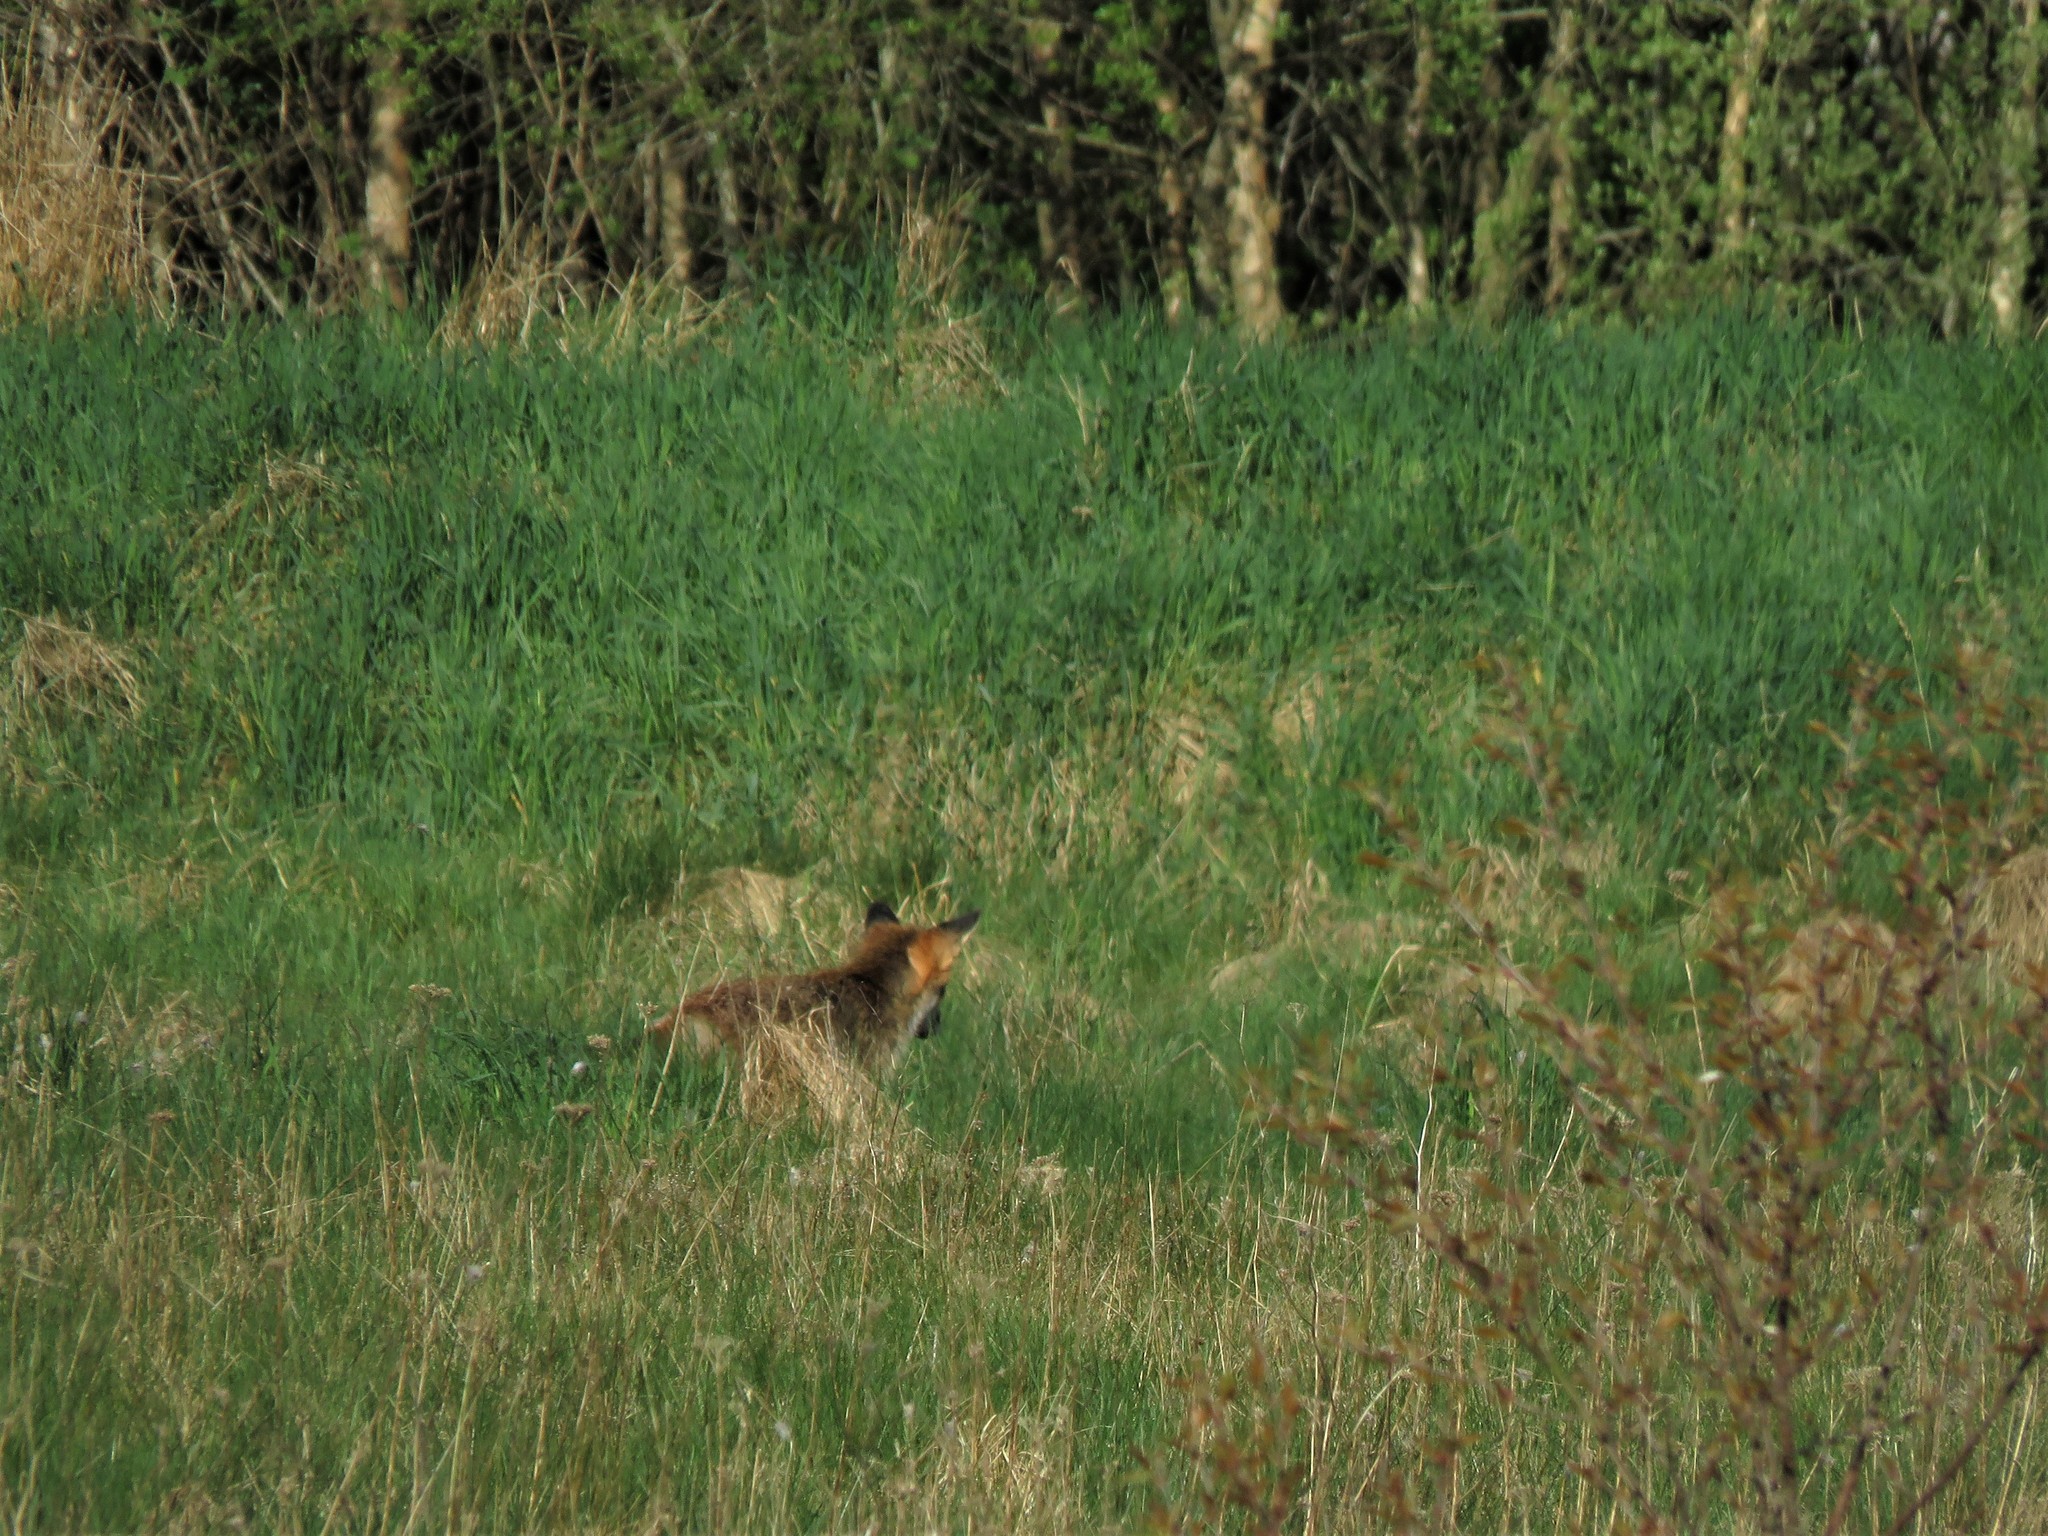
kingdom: Animalia
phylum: Chordata
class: Mammalia
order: Carnivora
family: Canidae
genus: Vulpes
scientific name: Vulpes vulpes
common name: Red fox
